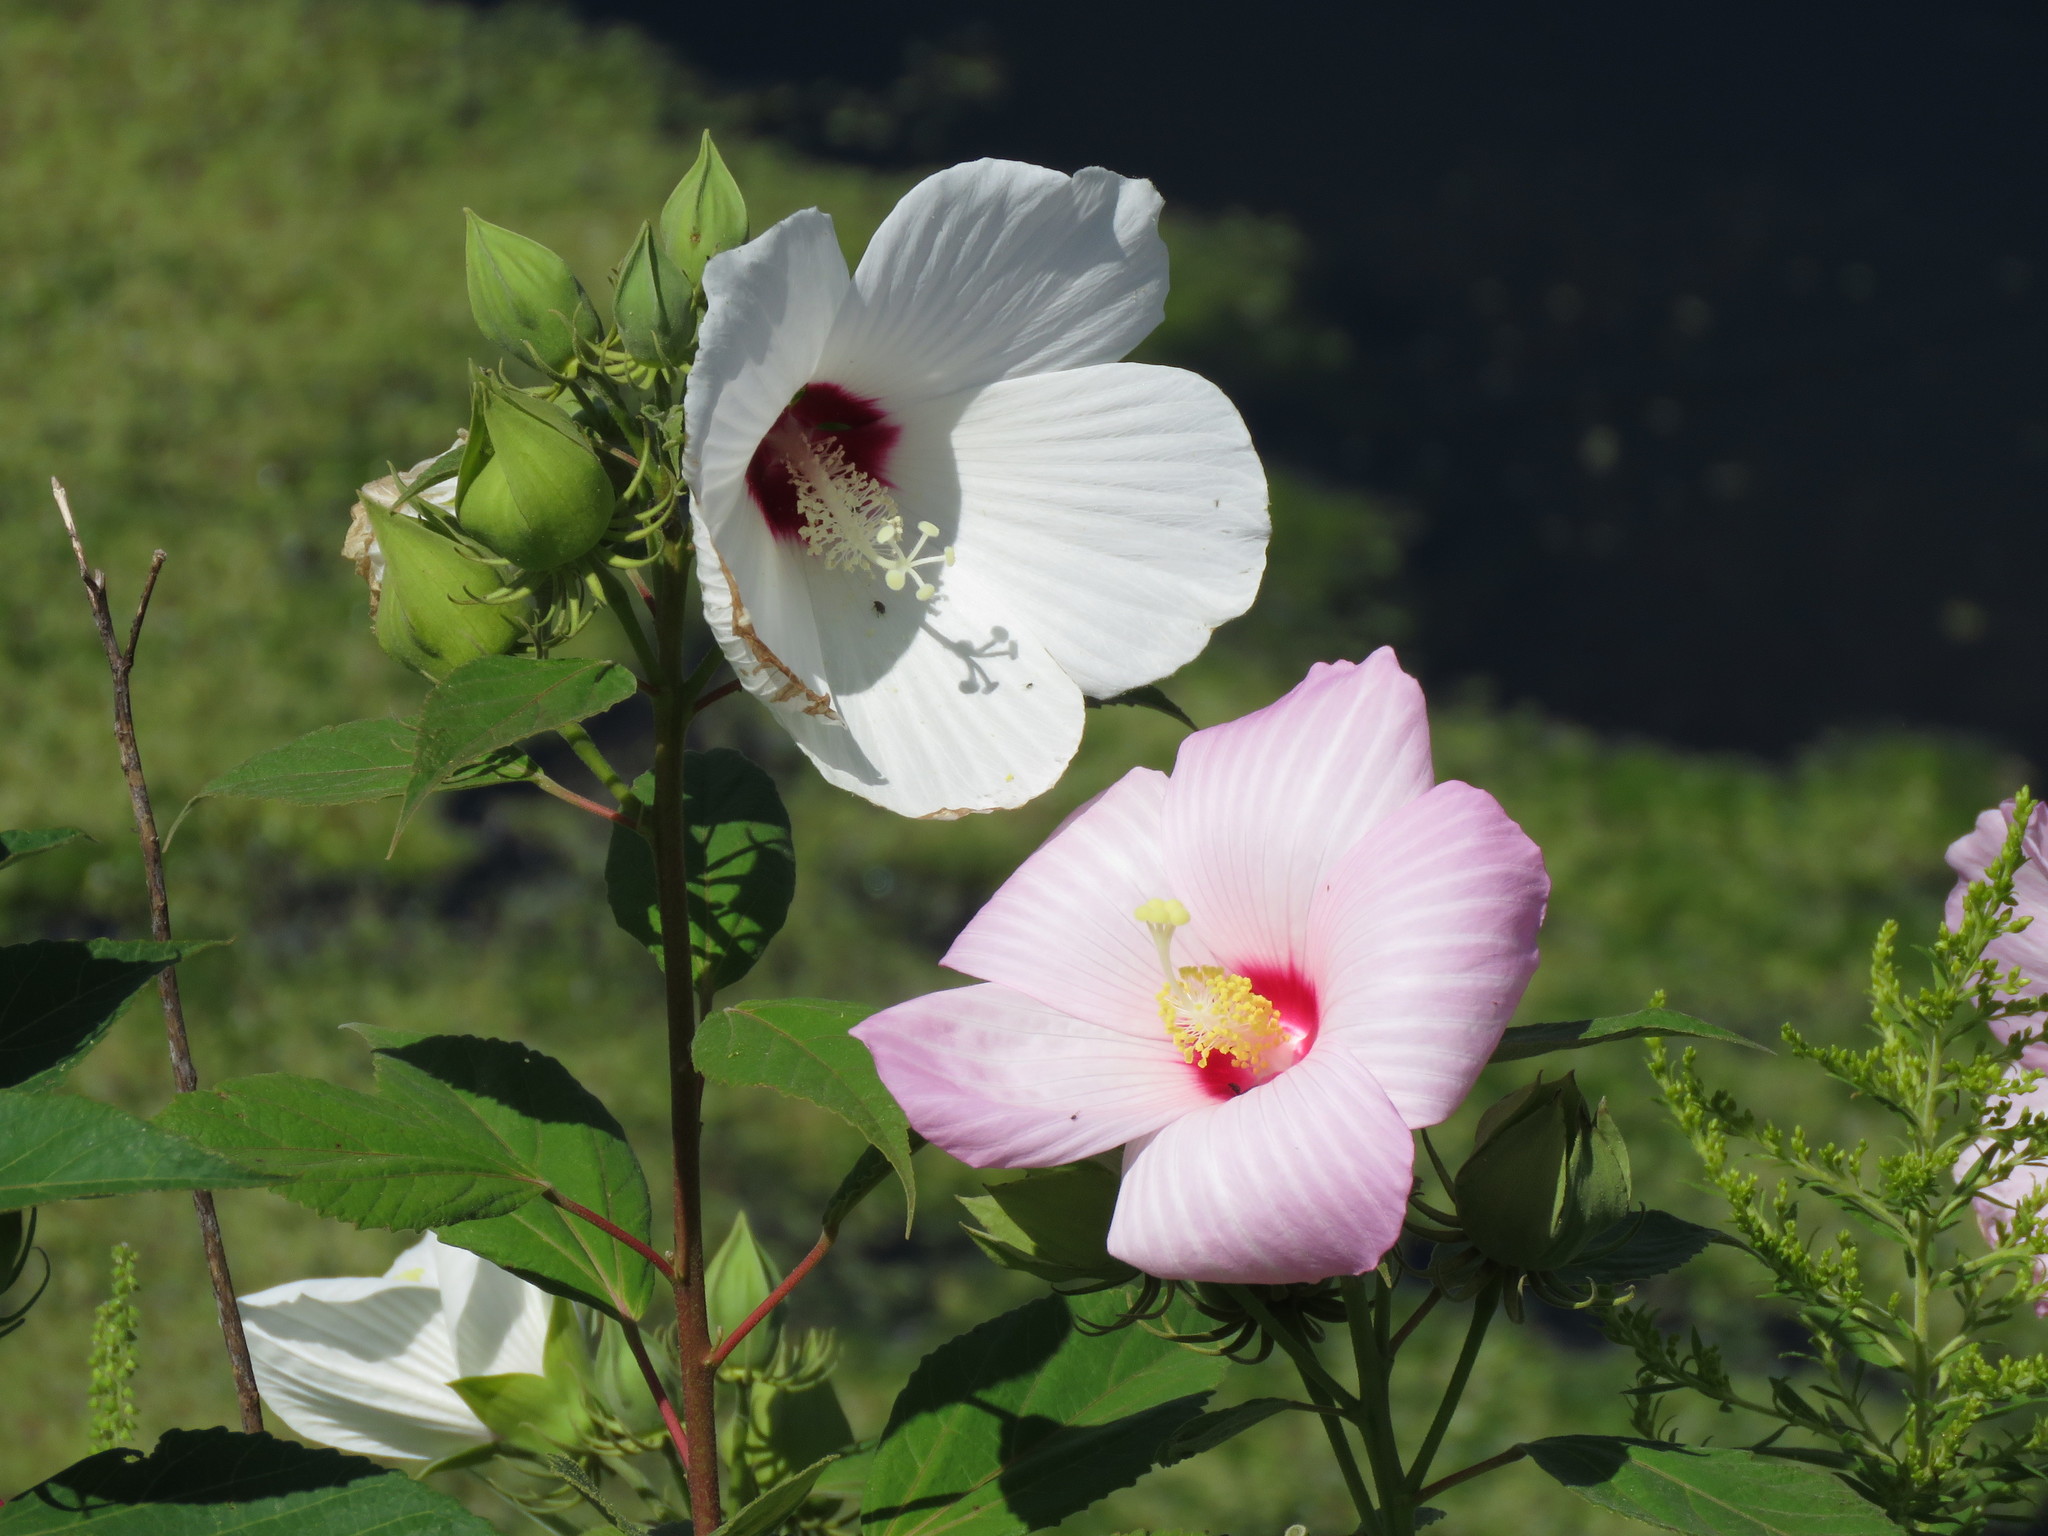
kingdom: Plantae
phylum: Tracheophyta
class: Magnoliopsida
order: Malvales
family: Malvaceae
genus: Hibiscus
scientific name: Hibiscus moscheutos
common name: Common rose-mallow
